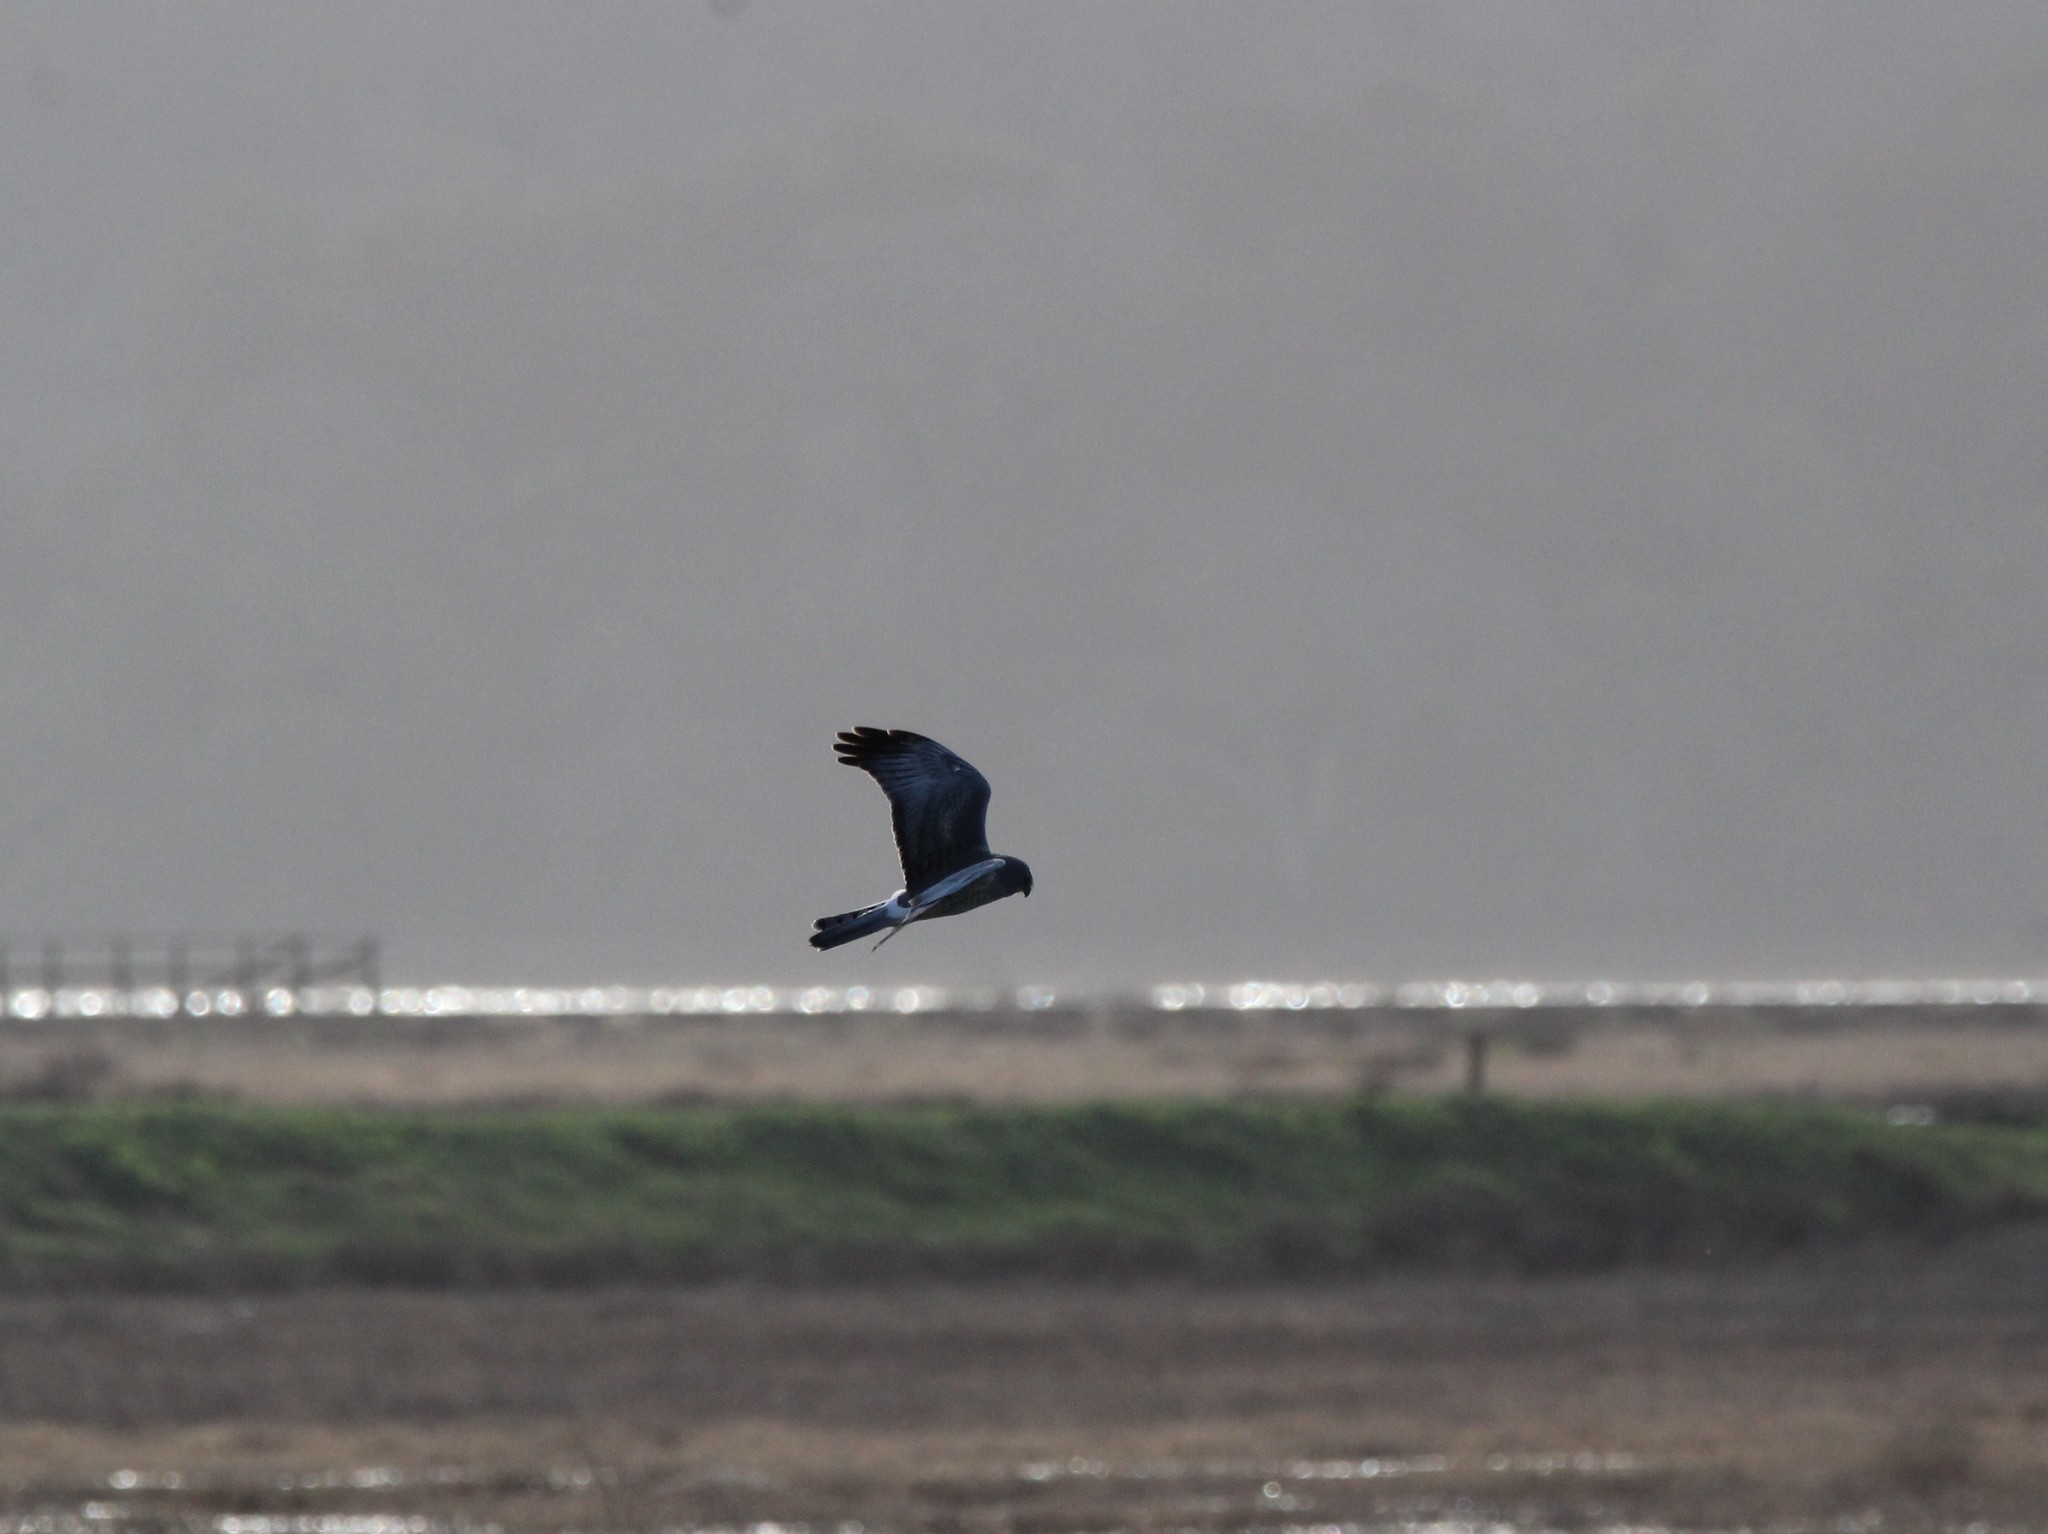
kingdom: Animalia
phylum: Chordata
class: Aves
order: Accipitriformes
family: Accipitridae
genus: Circus
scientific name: Circus cyaneus
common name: Hen harrier
